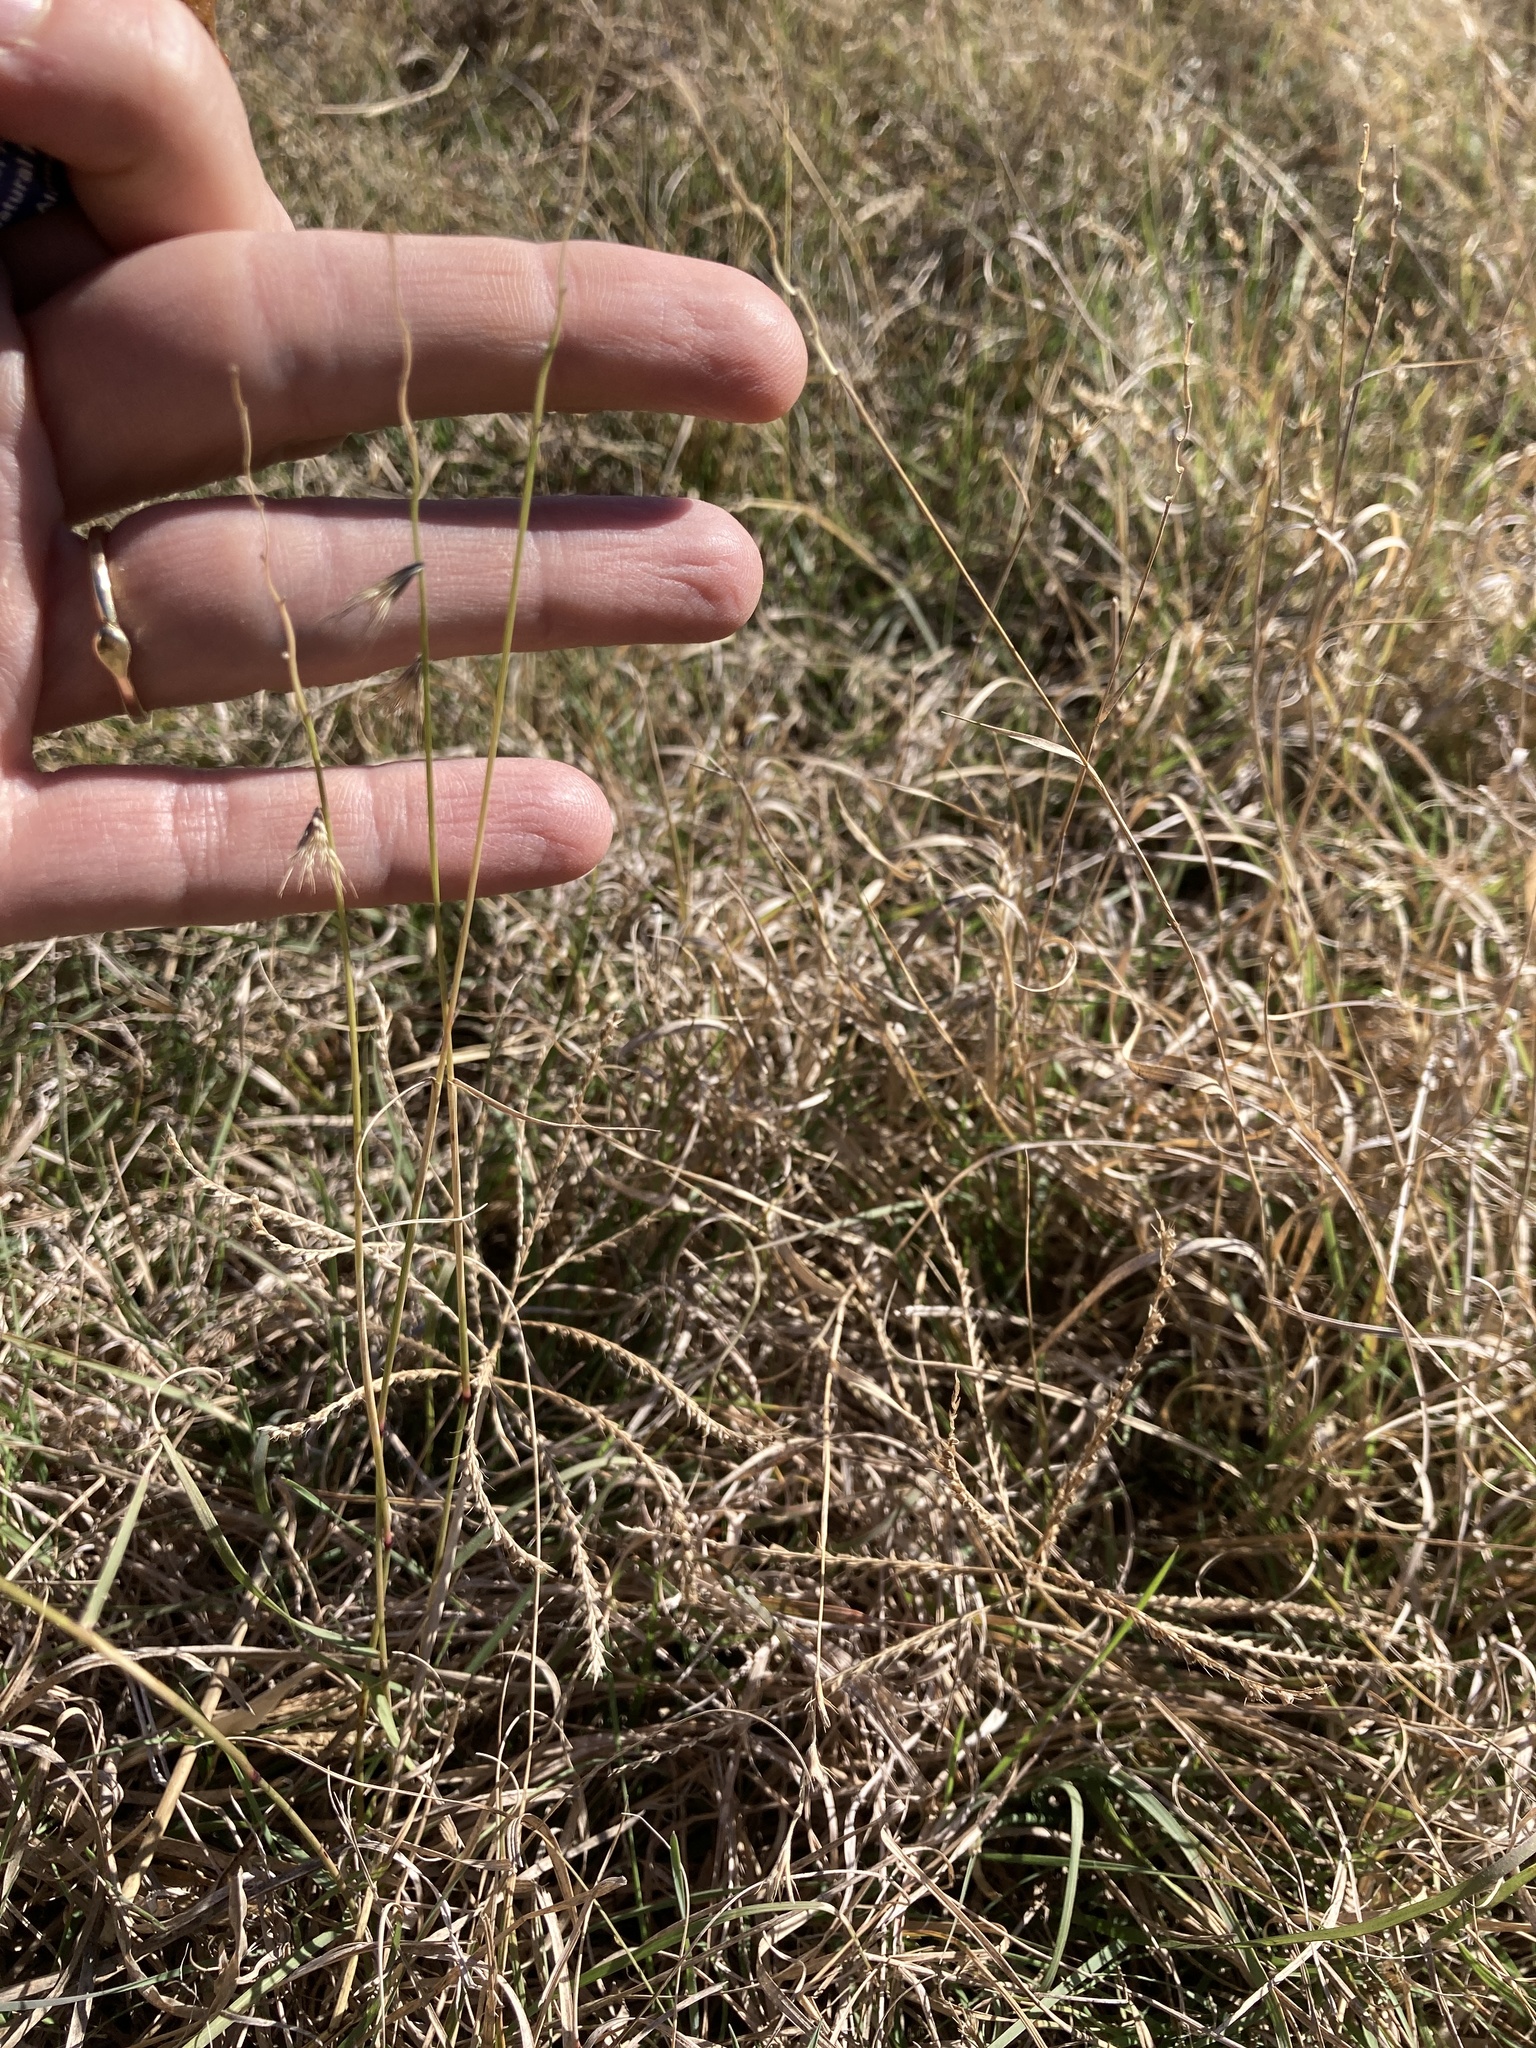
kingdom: Plantae
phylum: Tracheophyta
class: Liliopsida
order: Poales
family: Poaceae
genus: Bouteloua
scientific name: Bouteloua rigidiseta
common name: Texas grama
